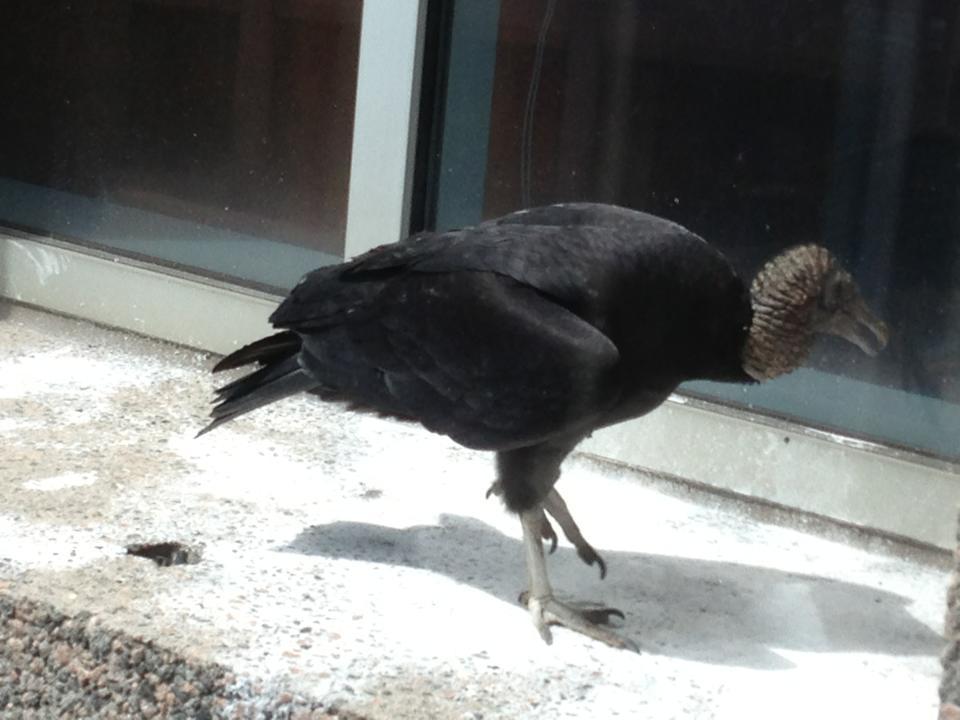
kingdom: Animalia
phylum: Chordata
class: Aves
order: Accipitriformes
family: Cathartidae
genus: Coragyps
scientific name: Coragyps atratus
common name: Black vulture
